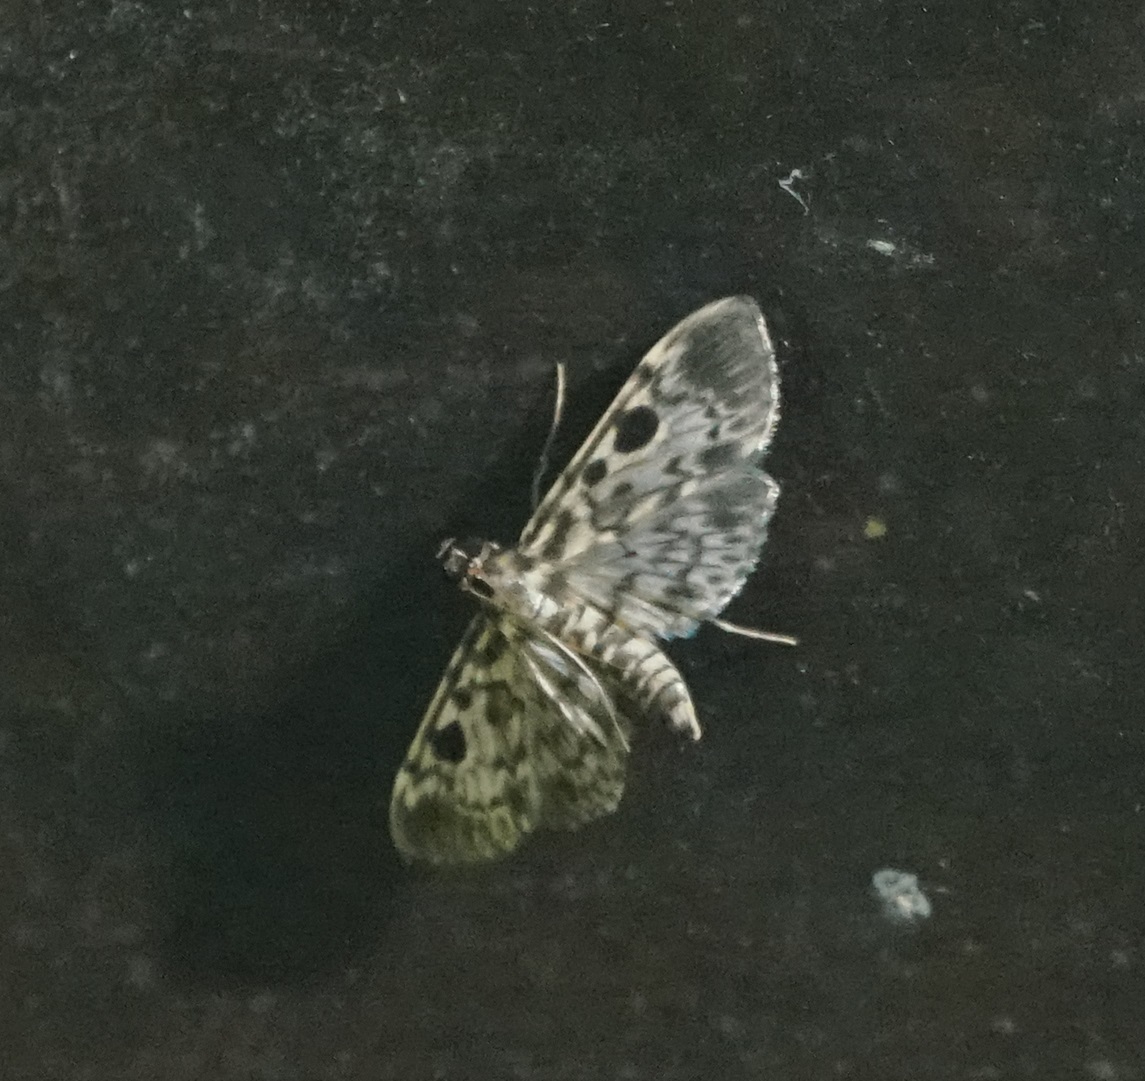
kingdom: Animalia
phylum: Arthropoda
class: Insecta
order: Lepidoptera
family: Crambidae
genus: Rhimphaliodes
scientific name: Rhimphaliodes macrostigma
